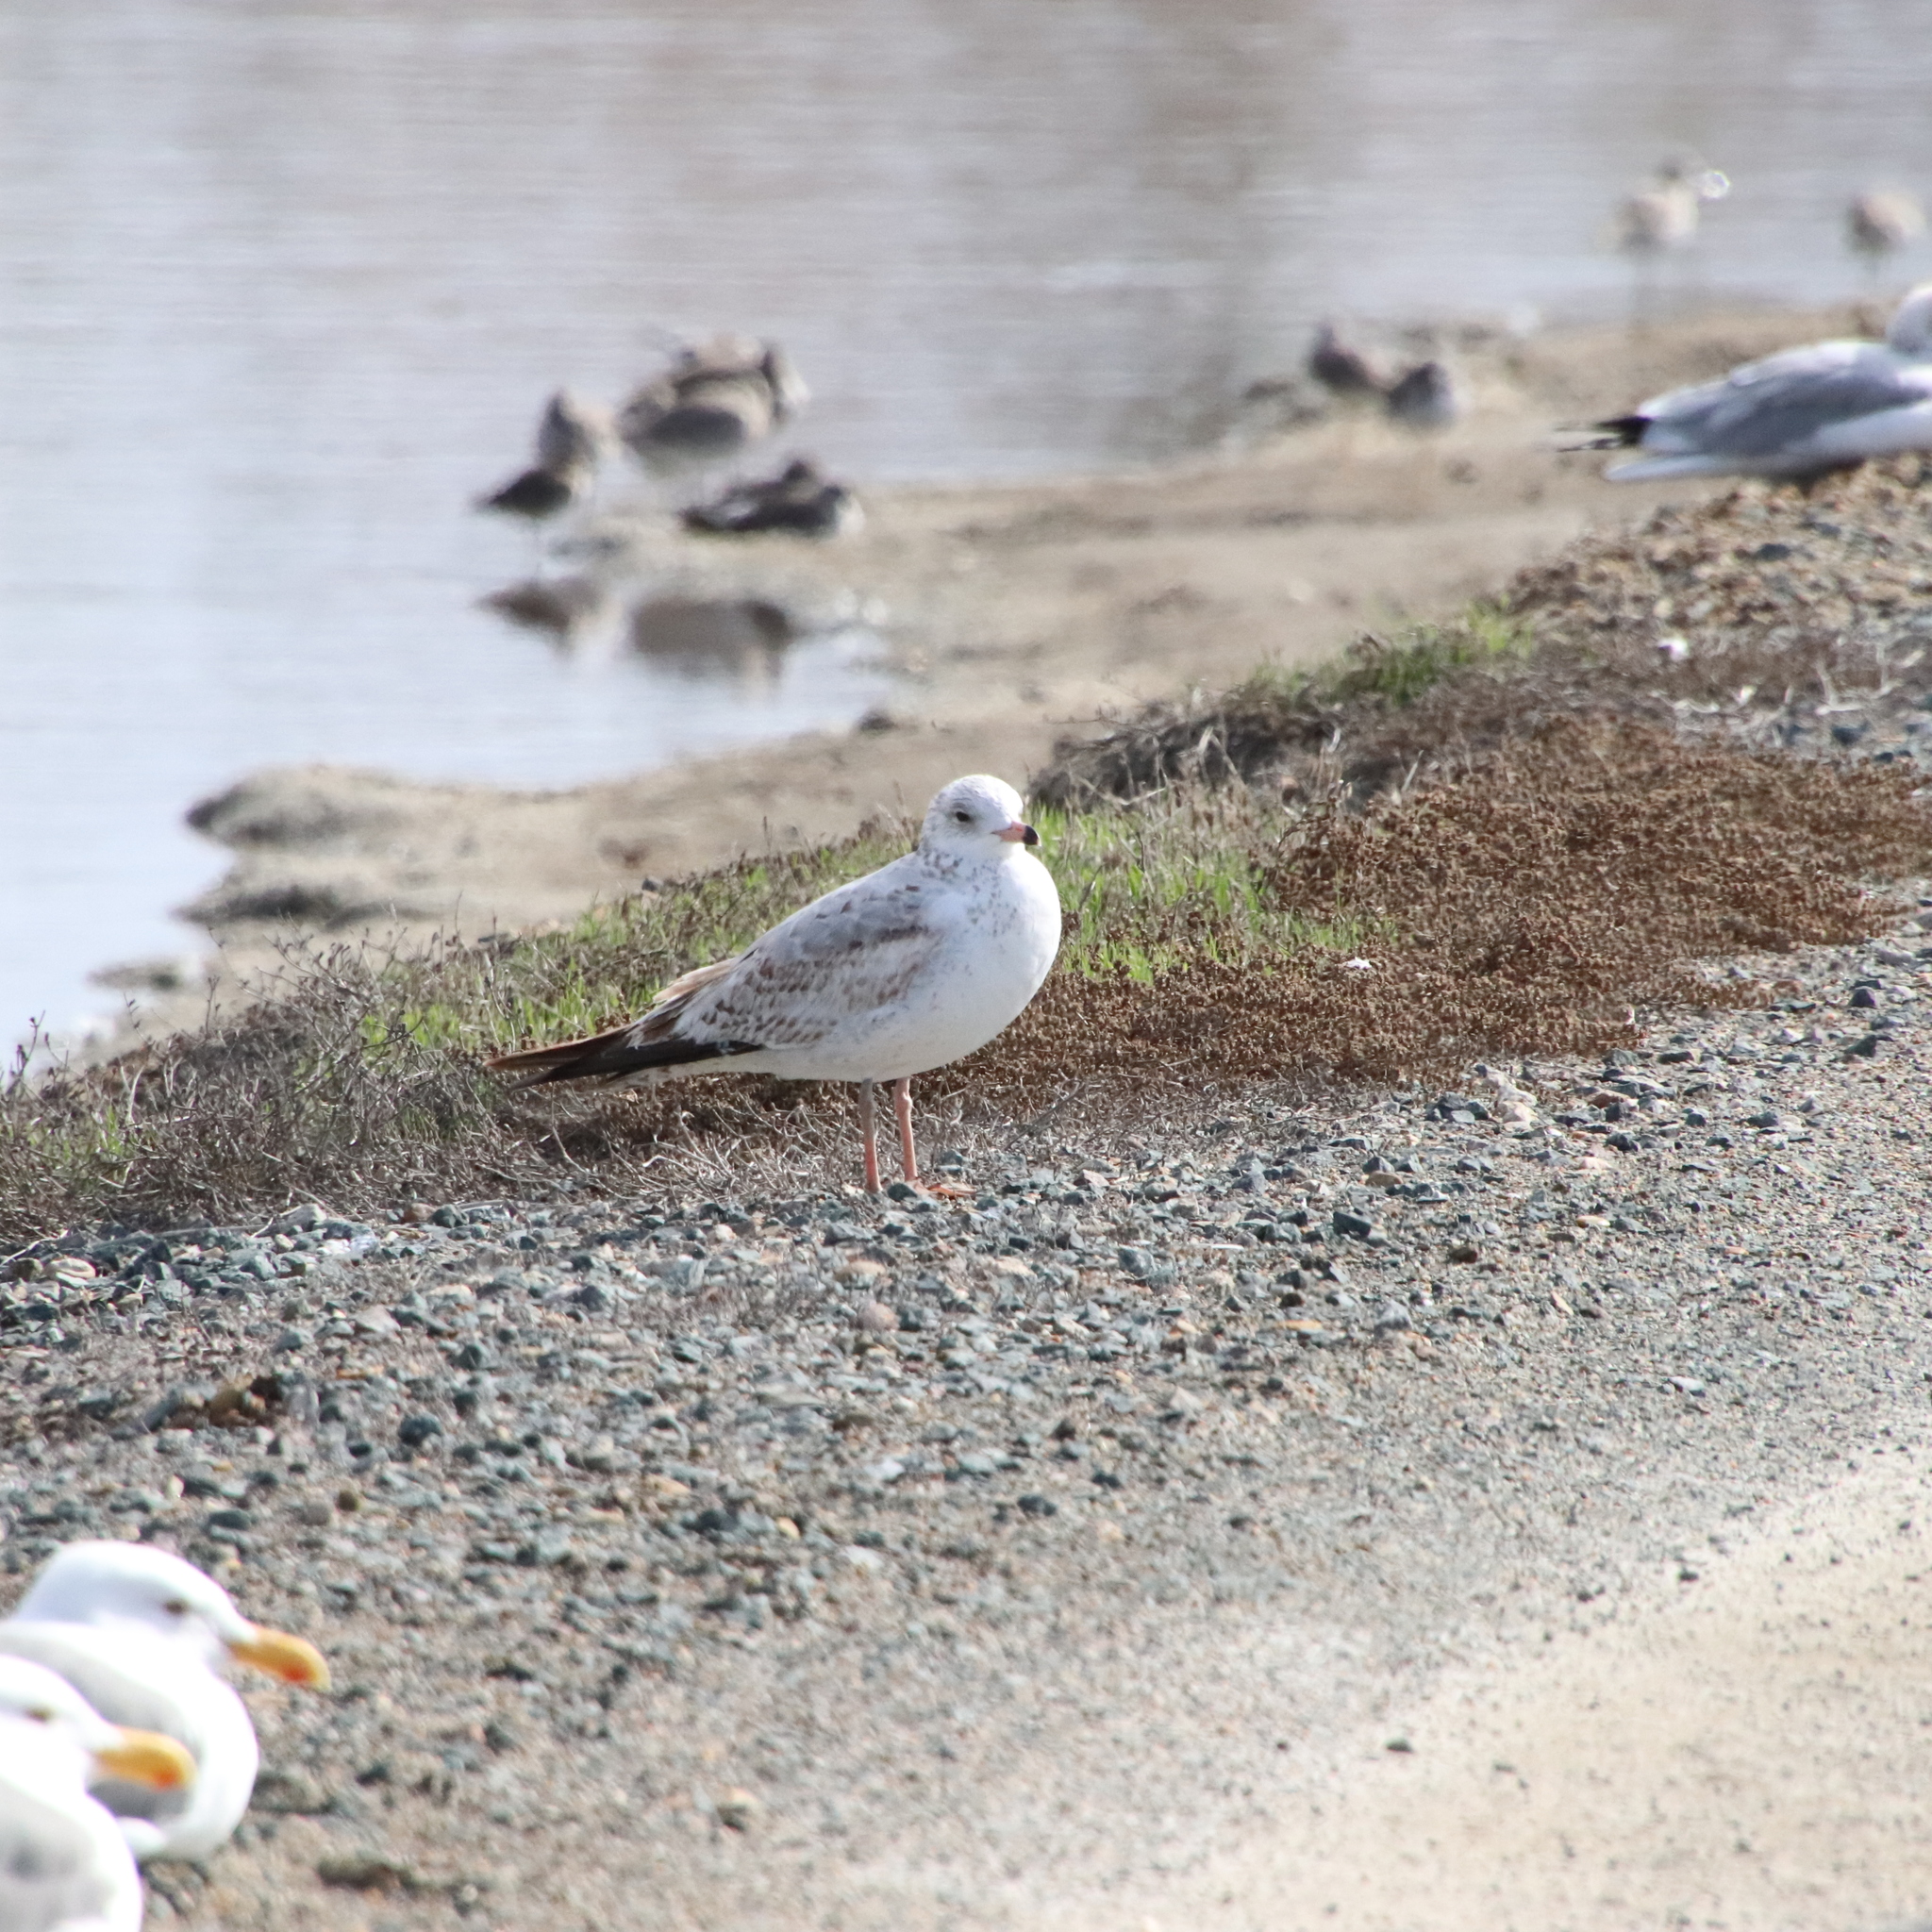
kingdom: Animalia
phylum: Chordata
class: Aves
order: Charadriiformes
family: Laridae
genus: Larus
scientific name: Larus delawarensis
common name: Ring-billed gull
